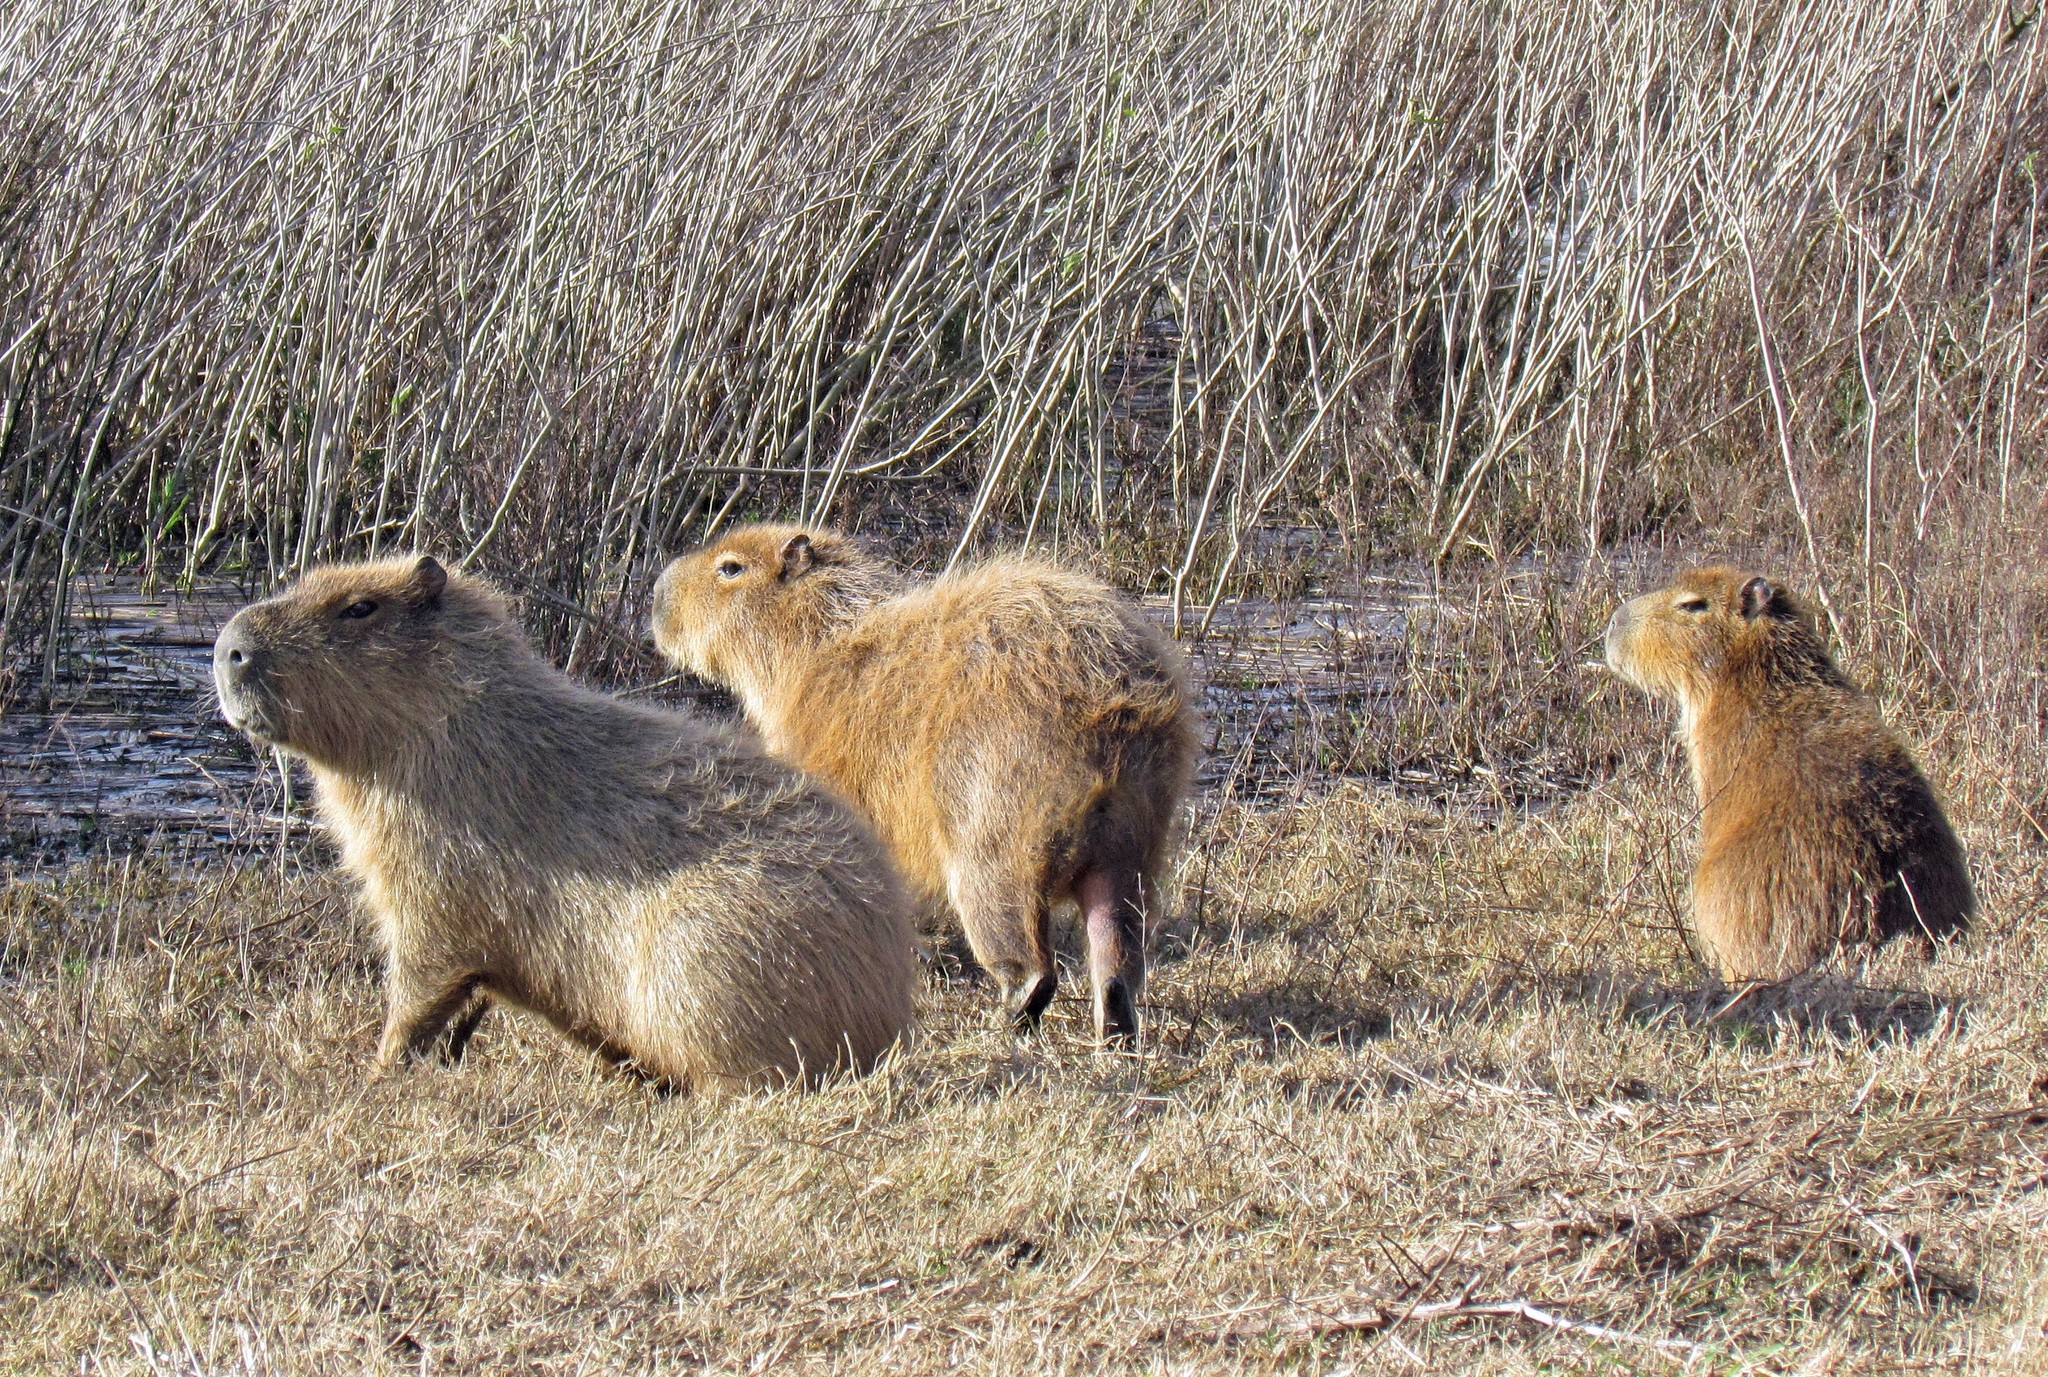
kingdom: Animalia
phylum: Chordata
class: Mammalia
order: Rodentia
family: Caviidae
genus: Hydrochoerus
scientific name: Hydrochoerus hydrochaeris
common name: Capybara
